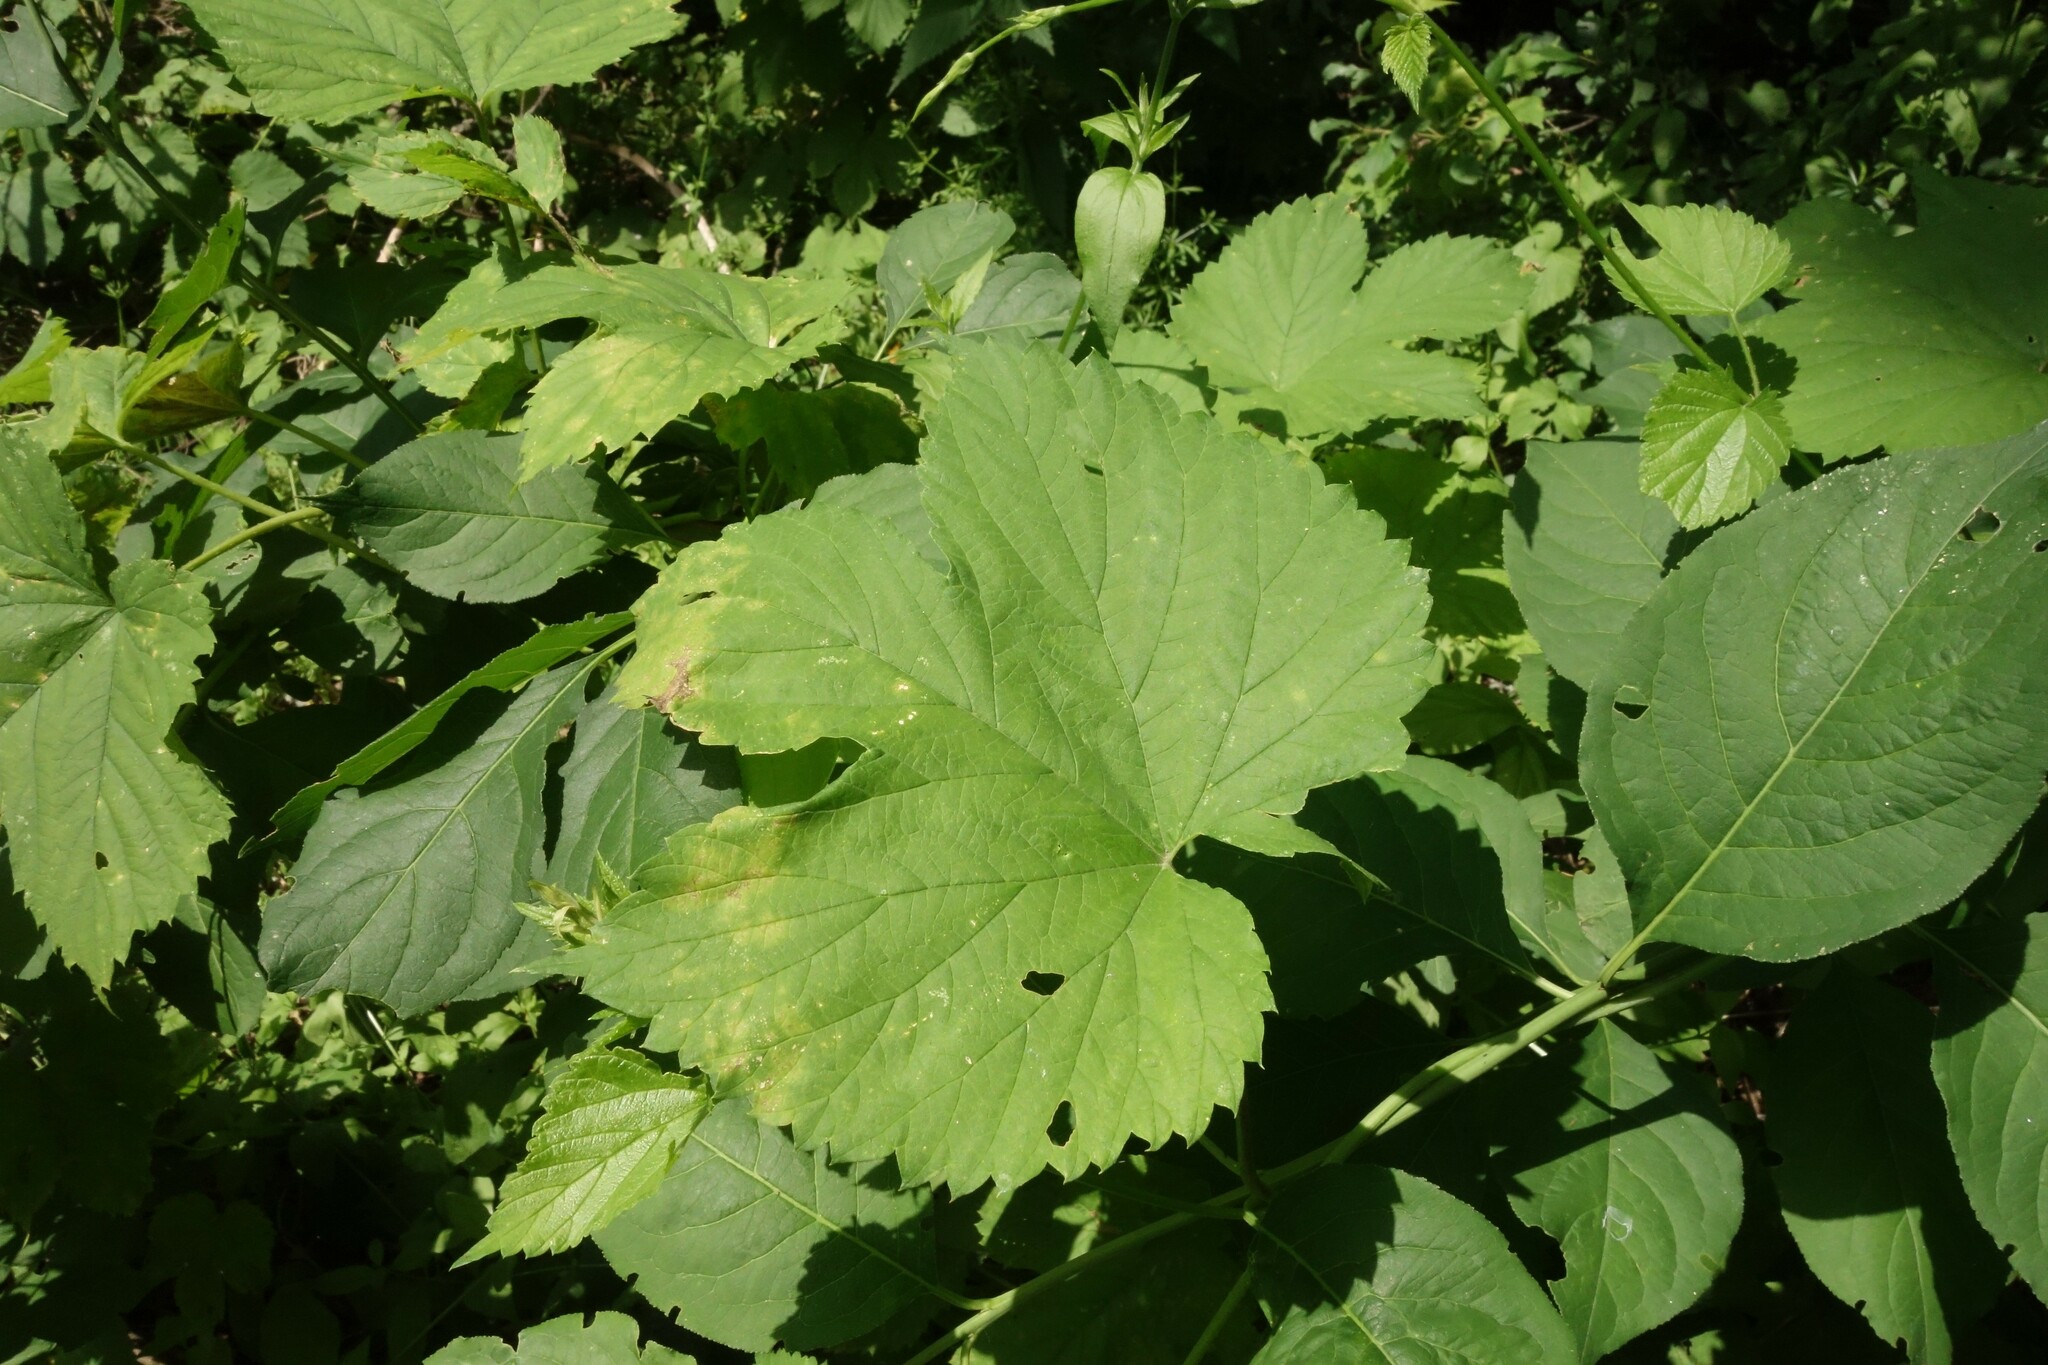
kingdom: Plantae
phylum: Tracheophyta
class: Magnoliopsida
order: Rosales
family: Cannabaceae
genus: Humulus
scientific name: Humulus lupulus
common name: Hop
